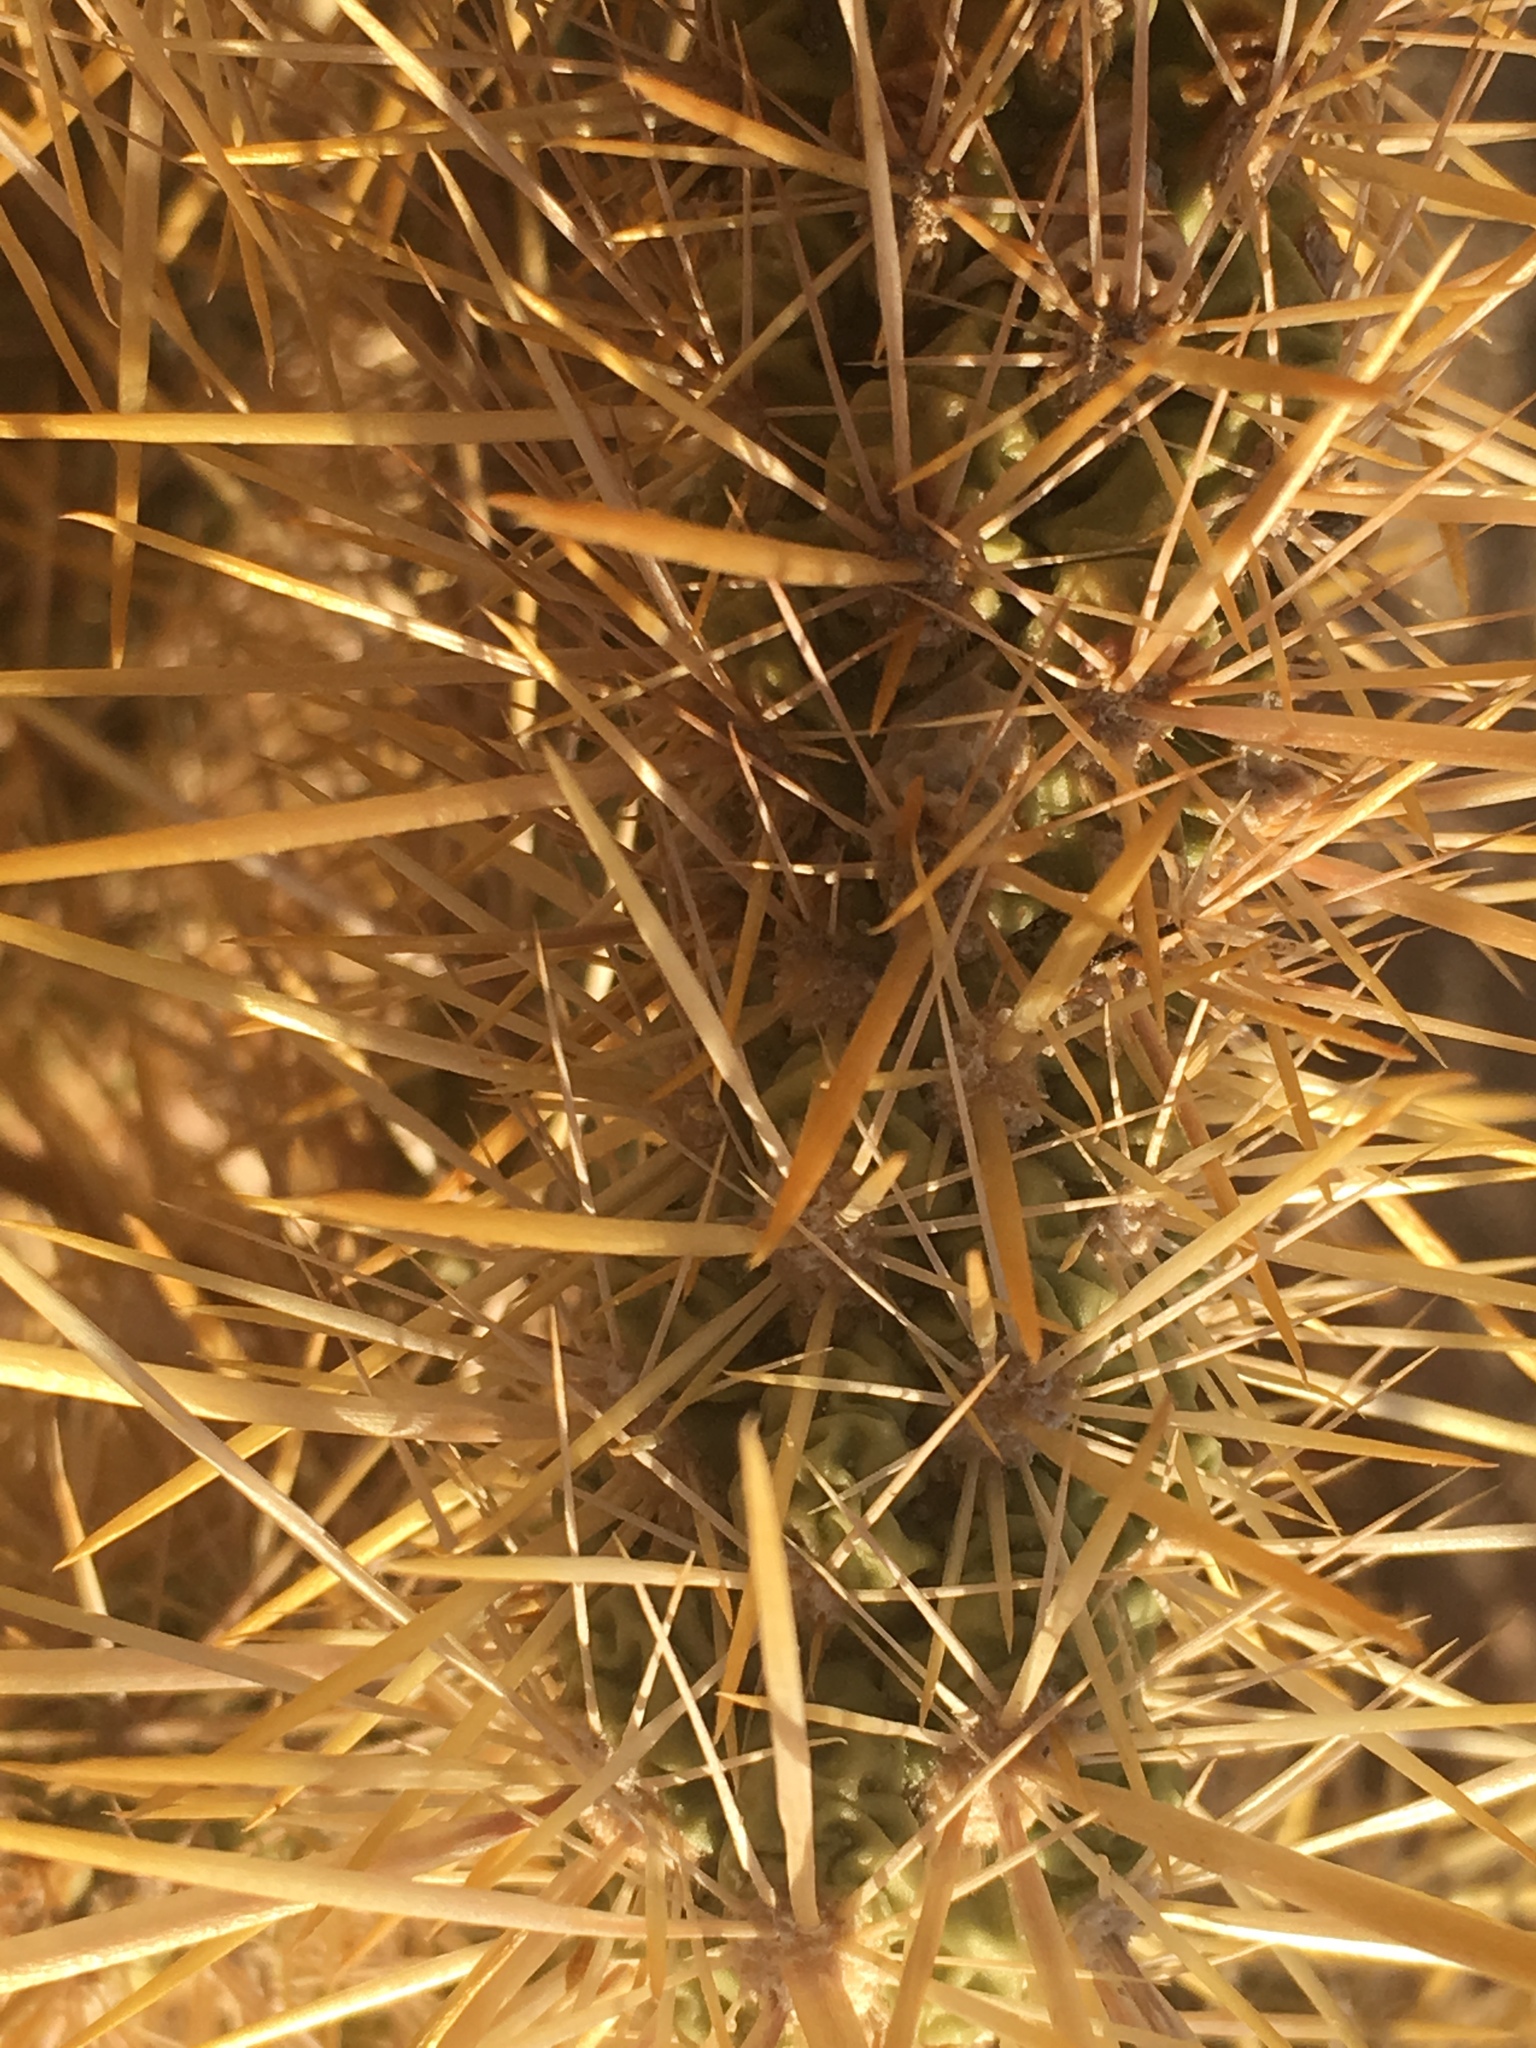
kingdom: Plantae
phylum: Tracheophyta
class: Magnoliopsida
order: Caryophyllales
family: Cactaceae
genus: Cylindropuntia
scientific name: Cylindropuntia echinocarpa
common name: Ground cholla
